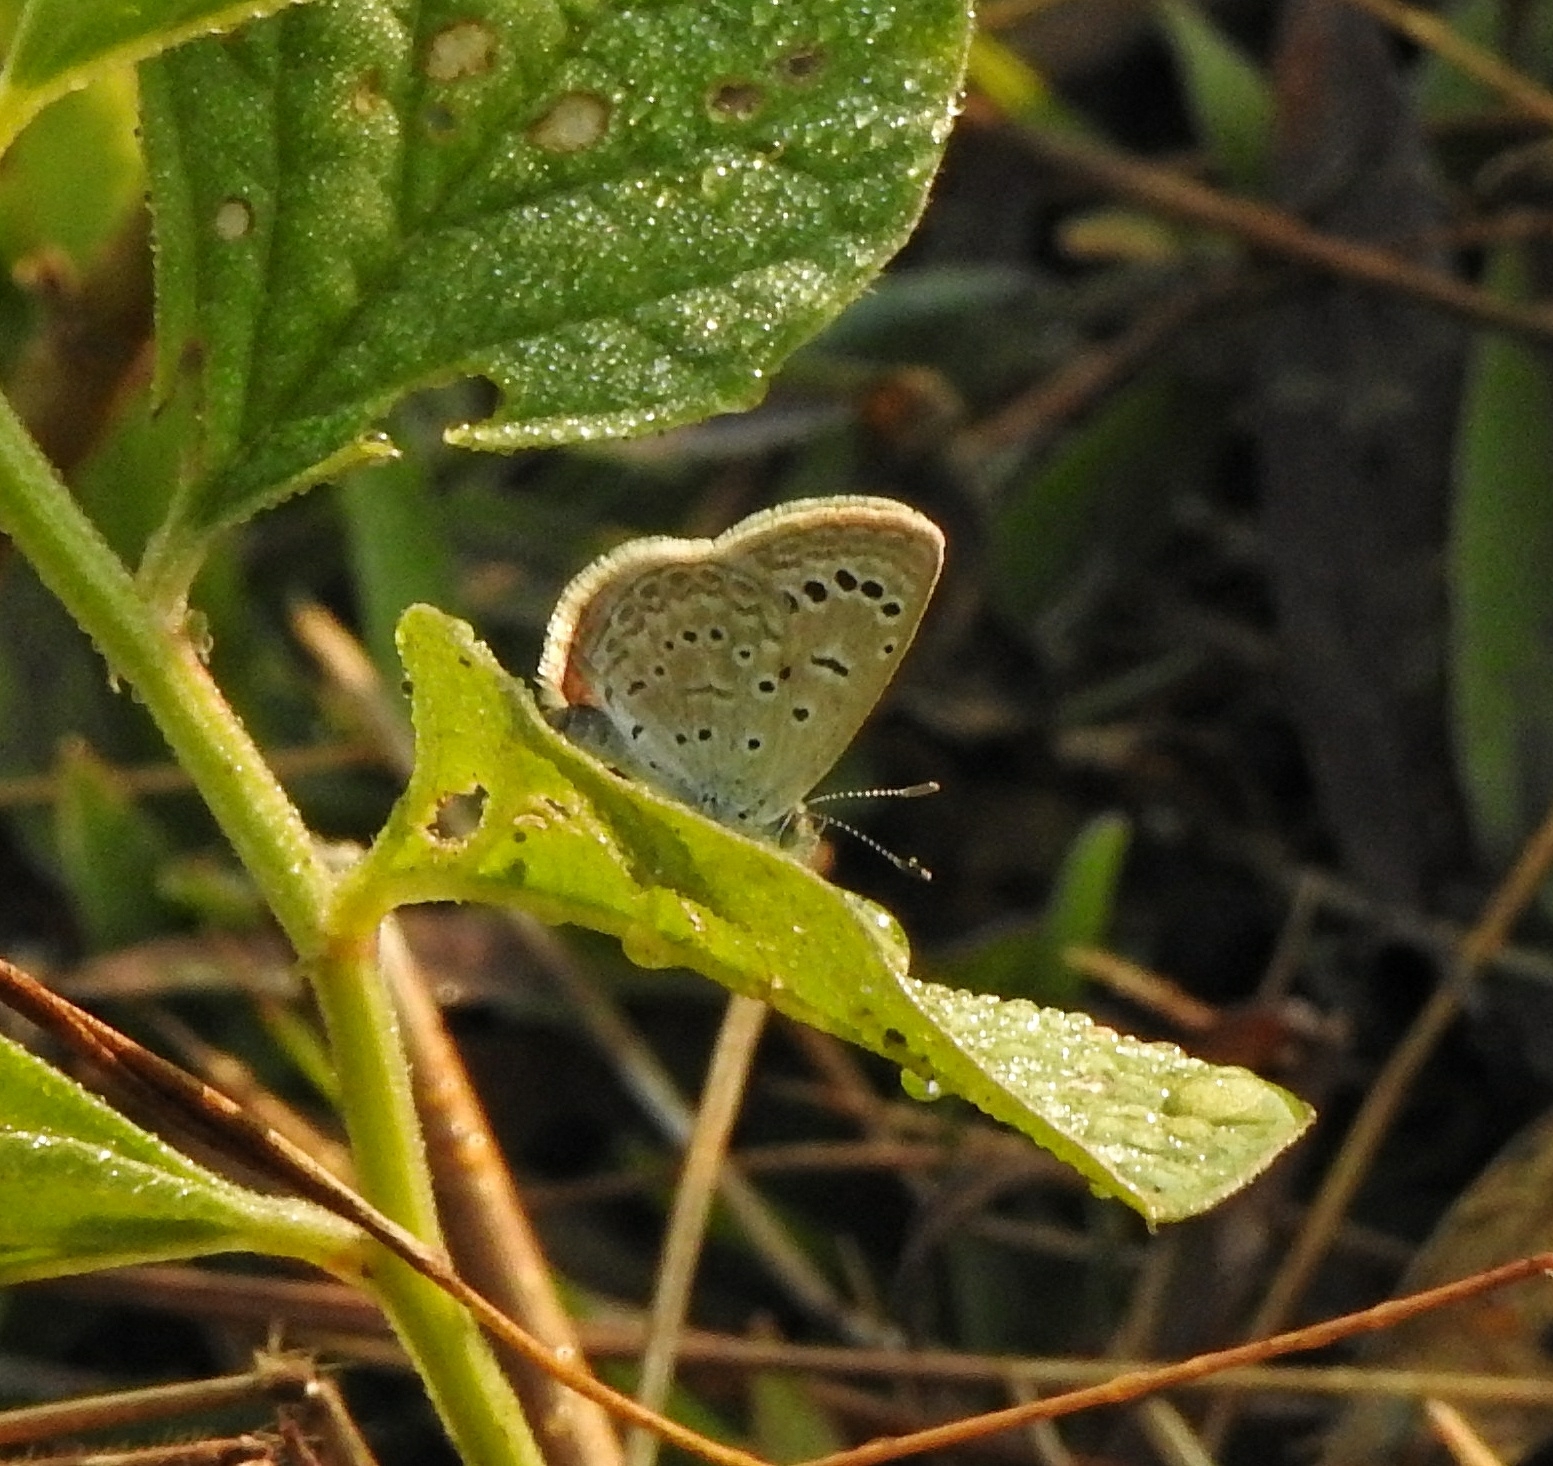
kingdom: Animalia
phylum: Arthropoda
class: Insecta
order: Lepidoptera
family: Lycaenidae
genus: Zizeeria
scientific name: Zizeeria karsandra
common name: Dark grass blue
